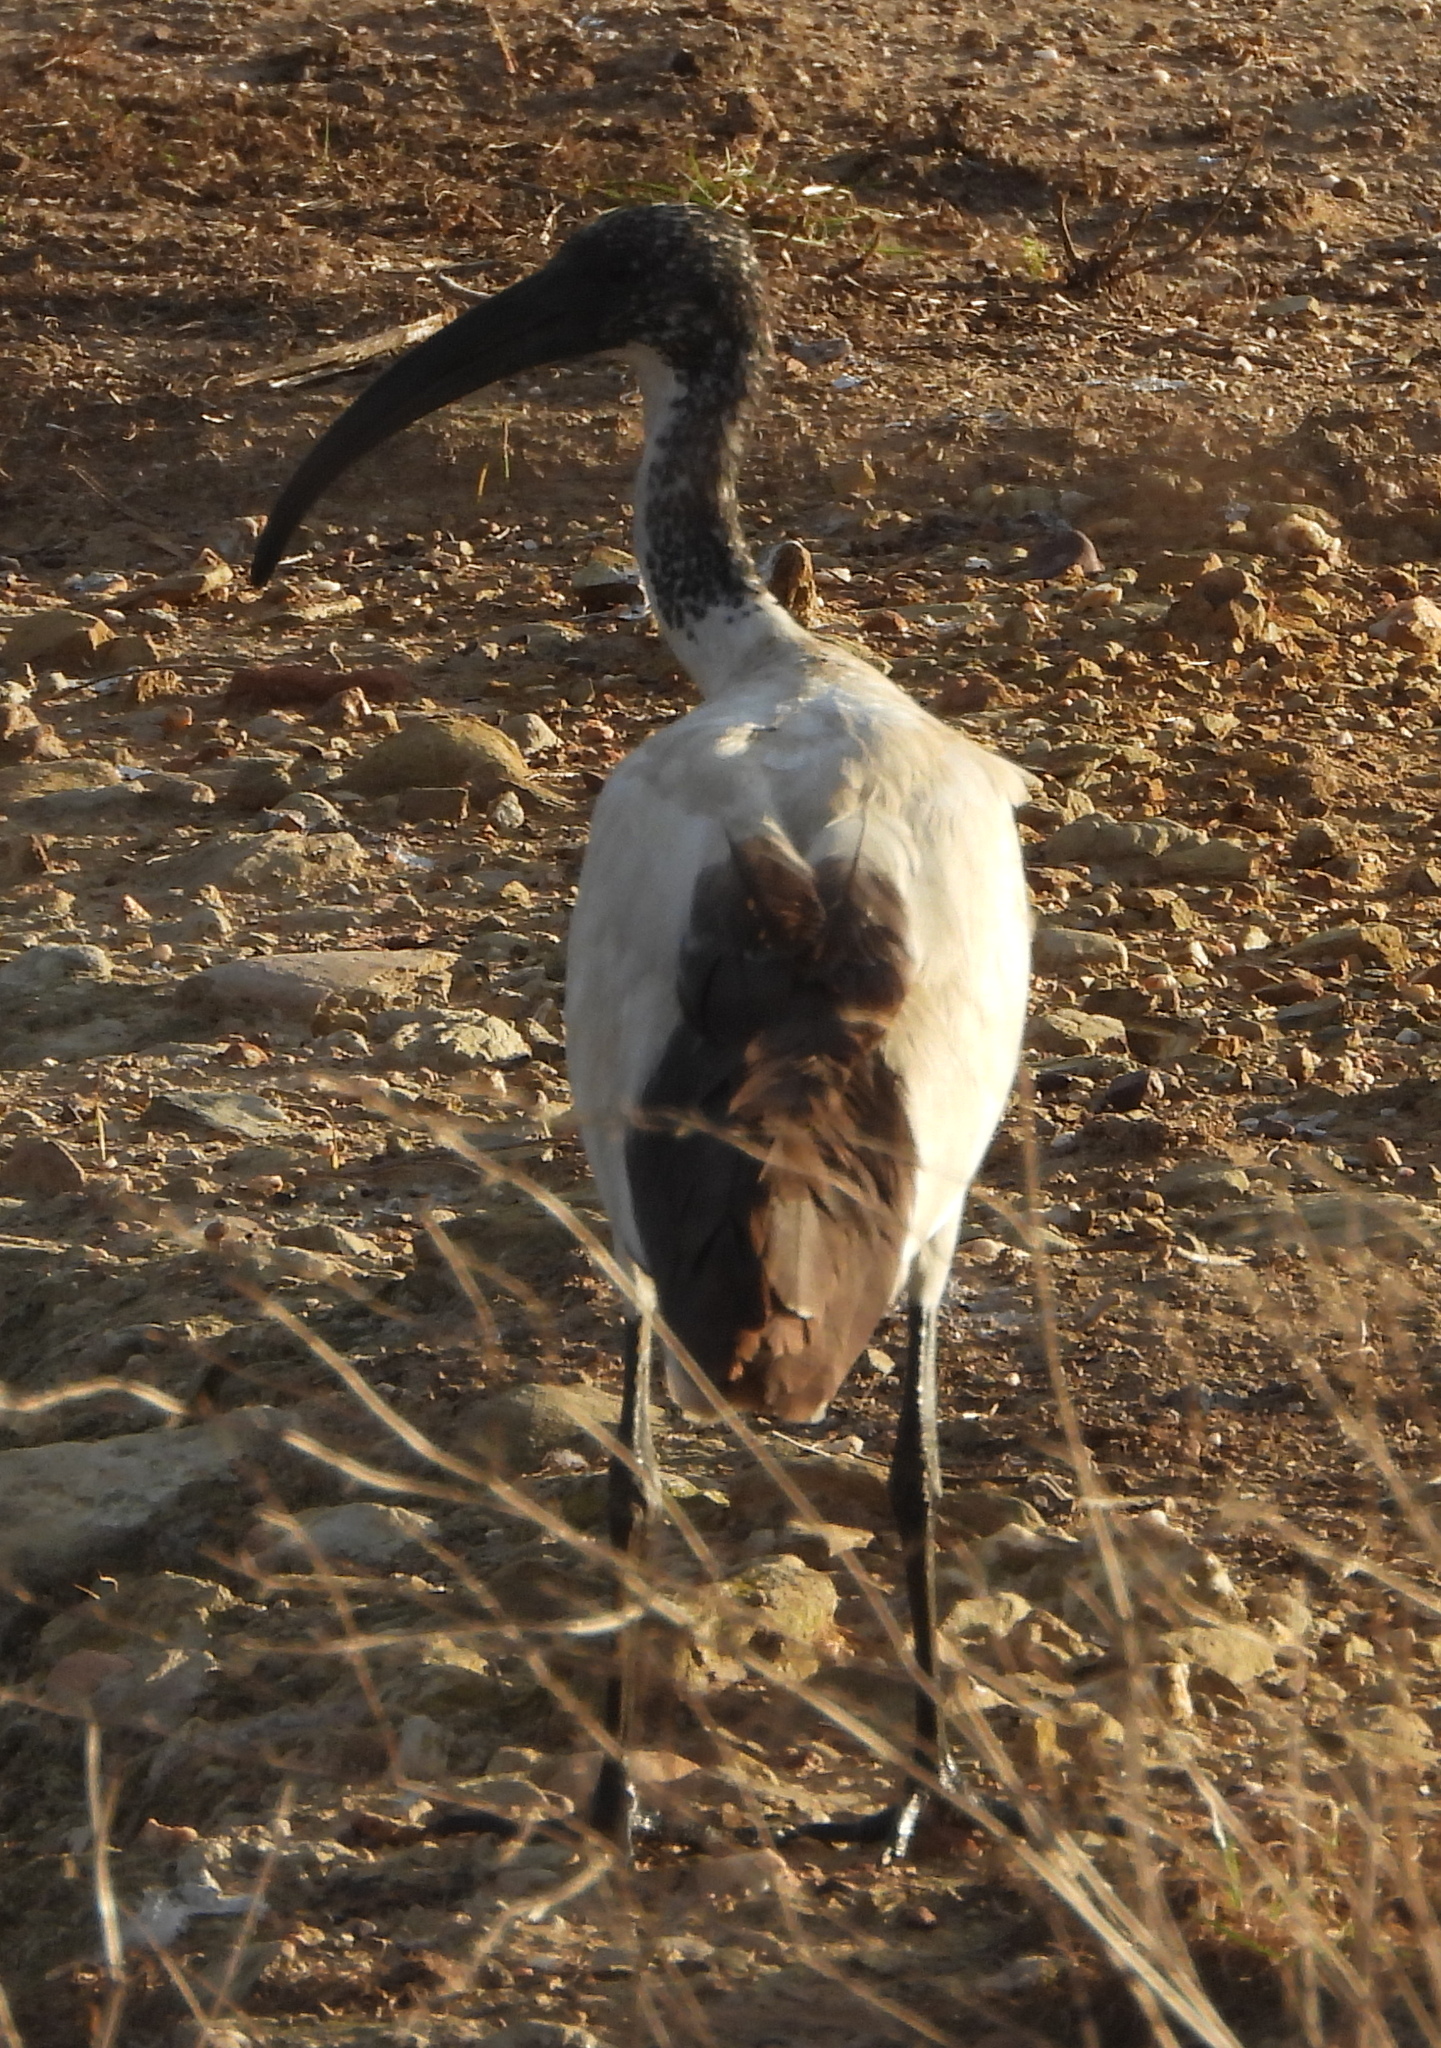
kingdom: Animalia
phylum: Chordata
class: Aves
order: Pelecaniformes
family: Threskiornithidae
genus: Threskiornis
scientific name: Threskiornis aethiopicus
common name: Sacred ibis
